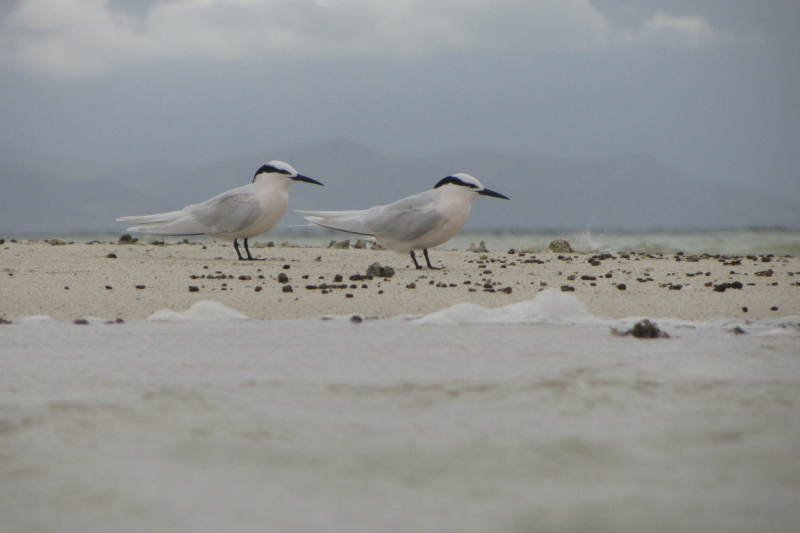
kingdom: Animalia
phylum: Chordata
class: Aves
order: Charadriiformes
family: Laridae
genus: Sterna
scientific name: Sterna sumatrana
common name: Black-naped tern
